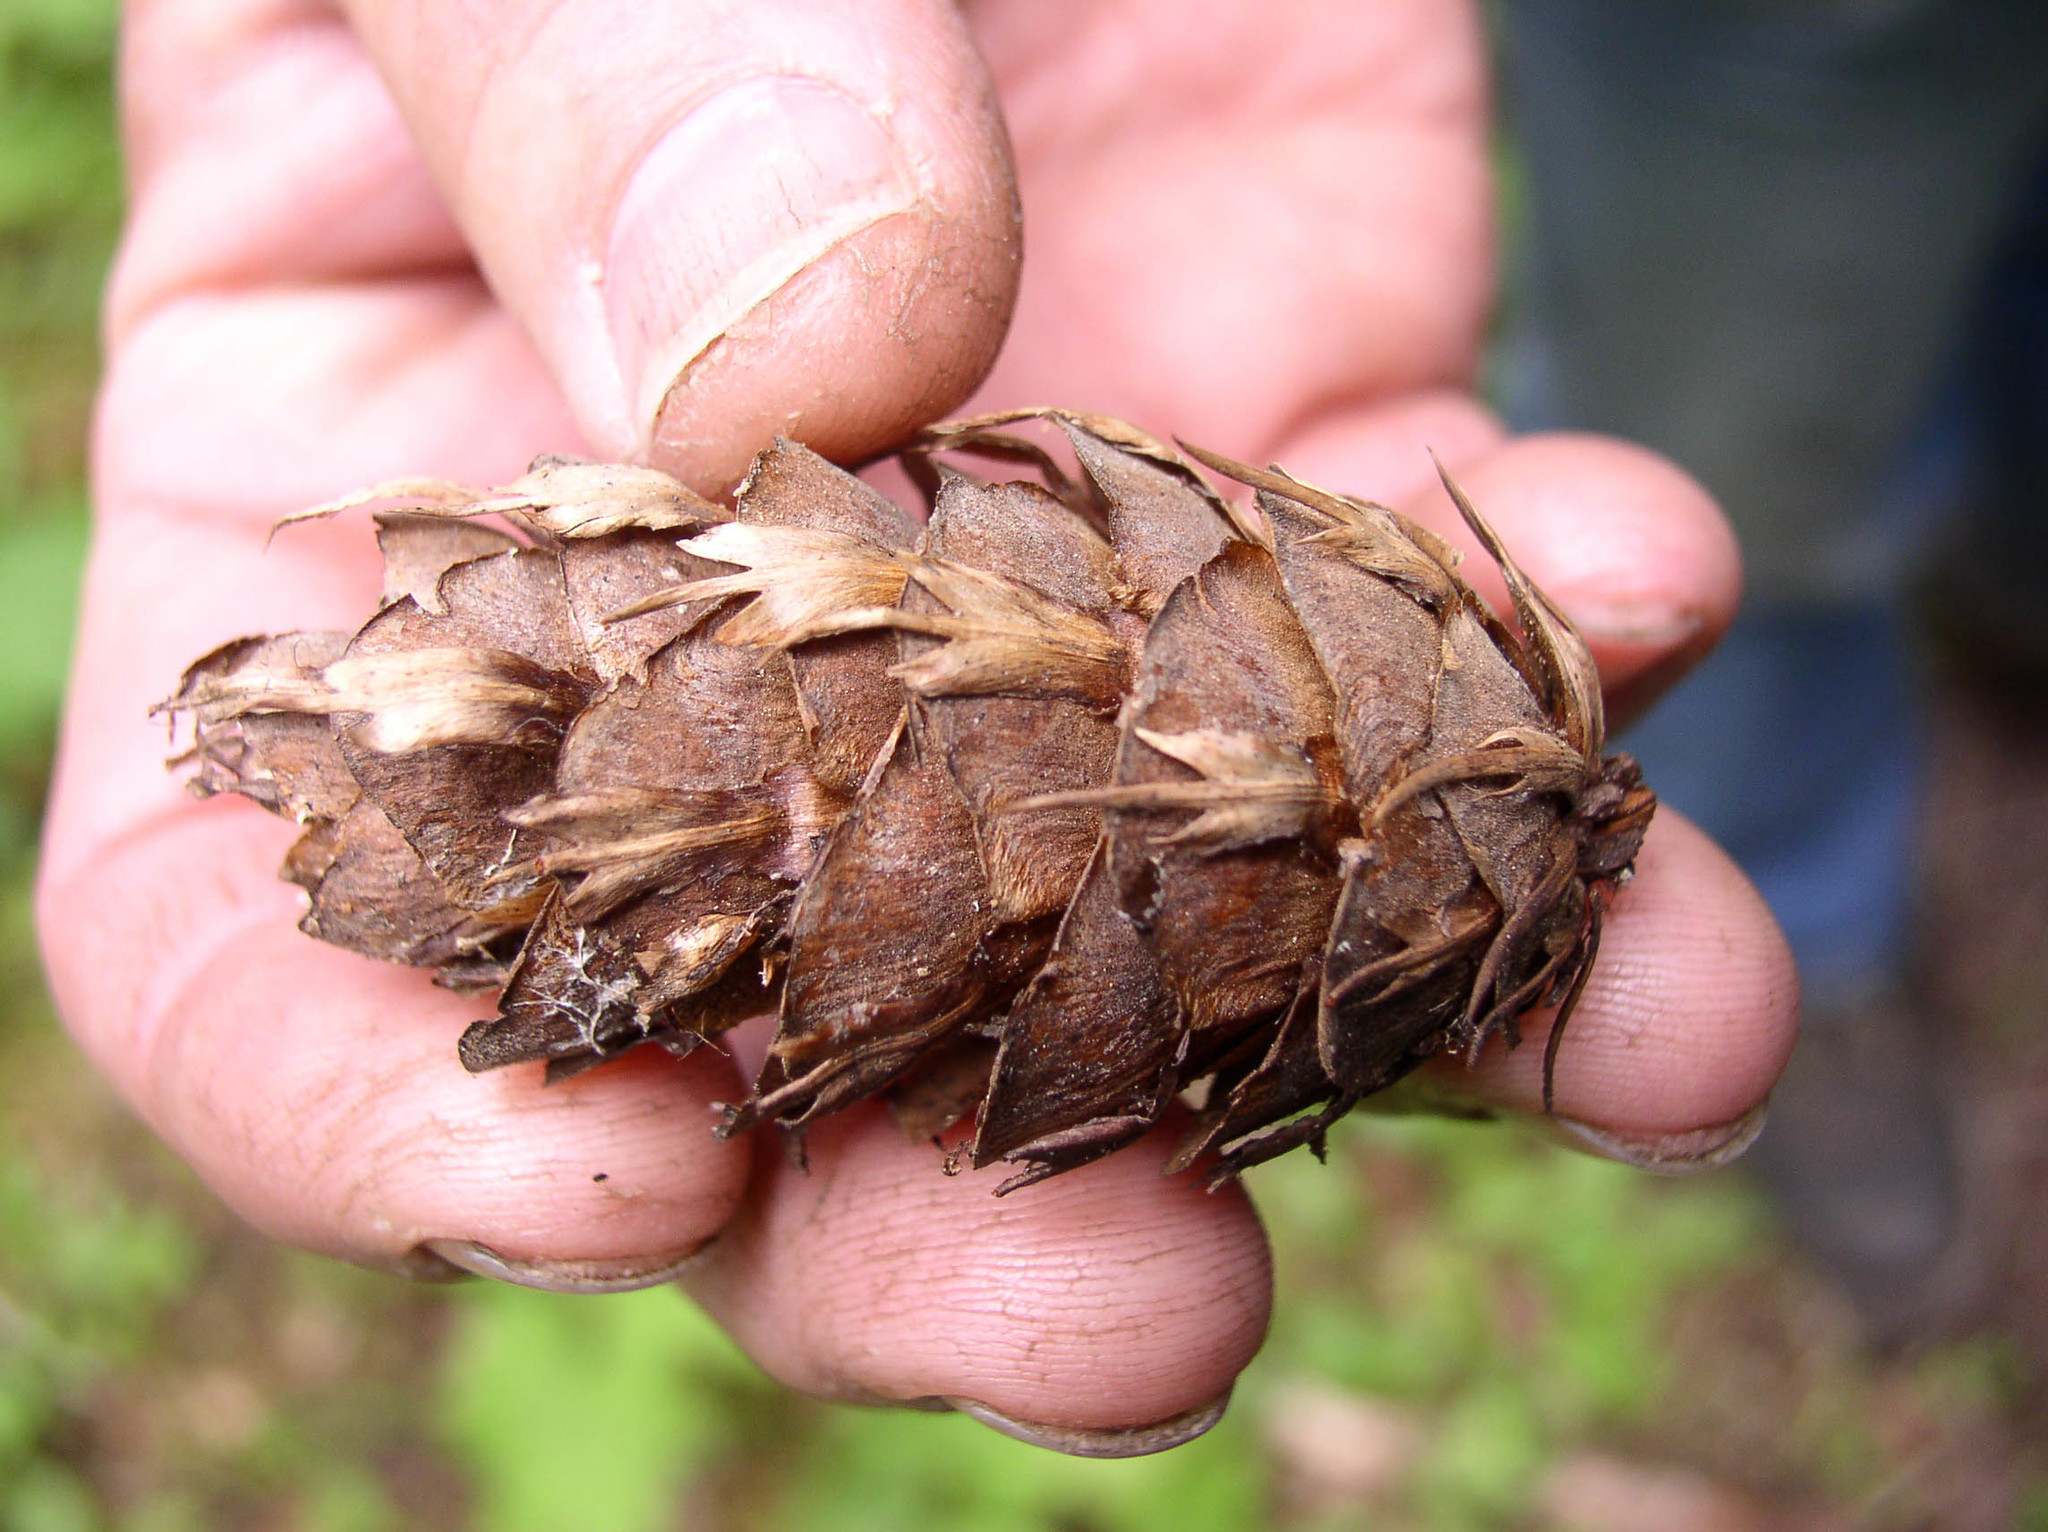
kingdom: Plantae
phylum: Tracheophyta
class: Pinopsida
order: Pinales
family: Pinaceae
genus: Pseudotsuga
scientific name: Pseudotsuga menziesii
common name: Douglas fir
